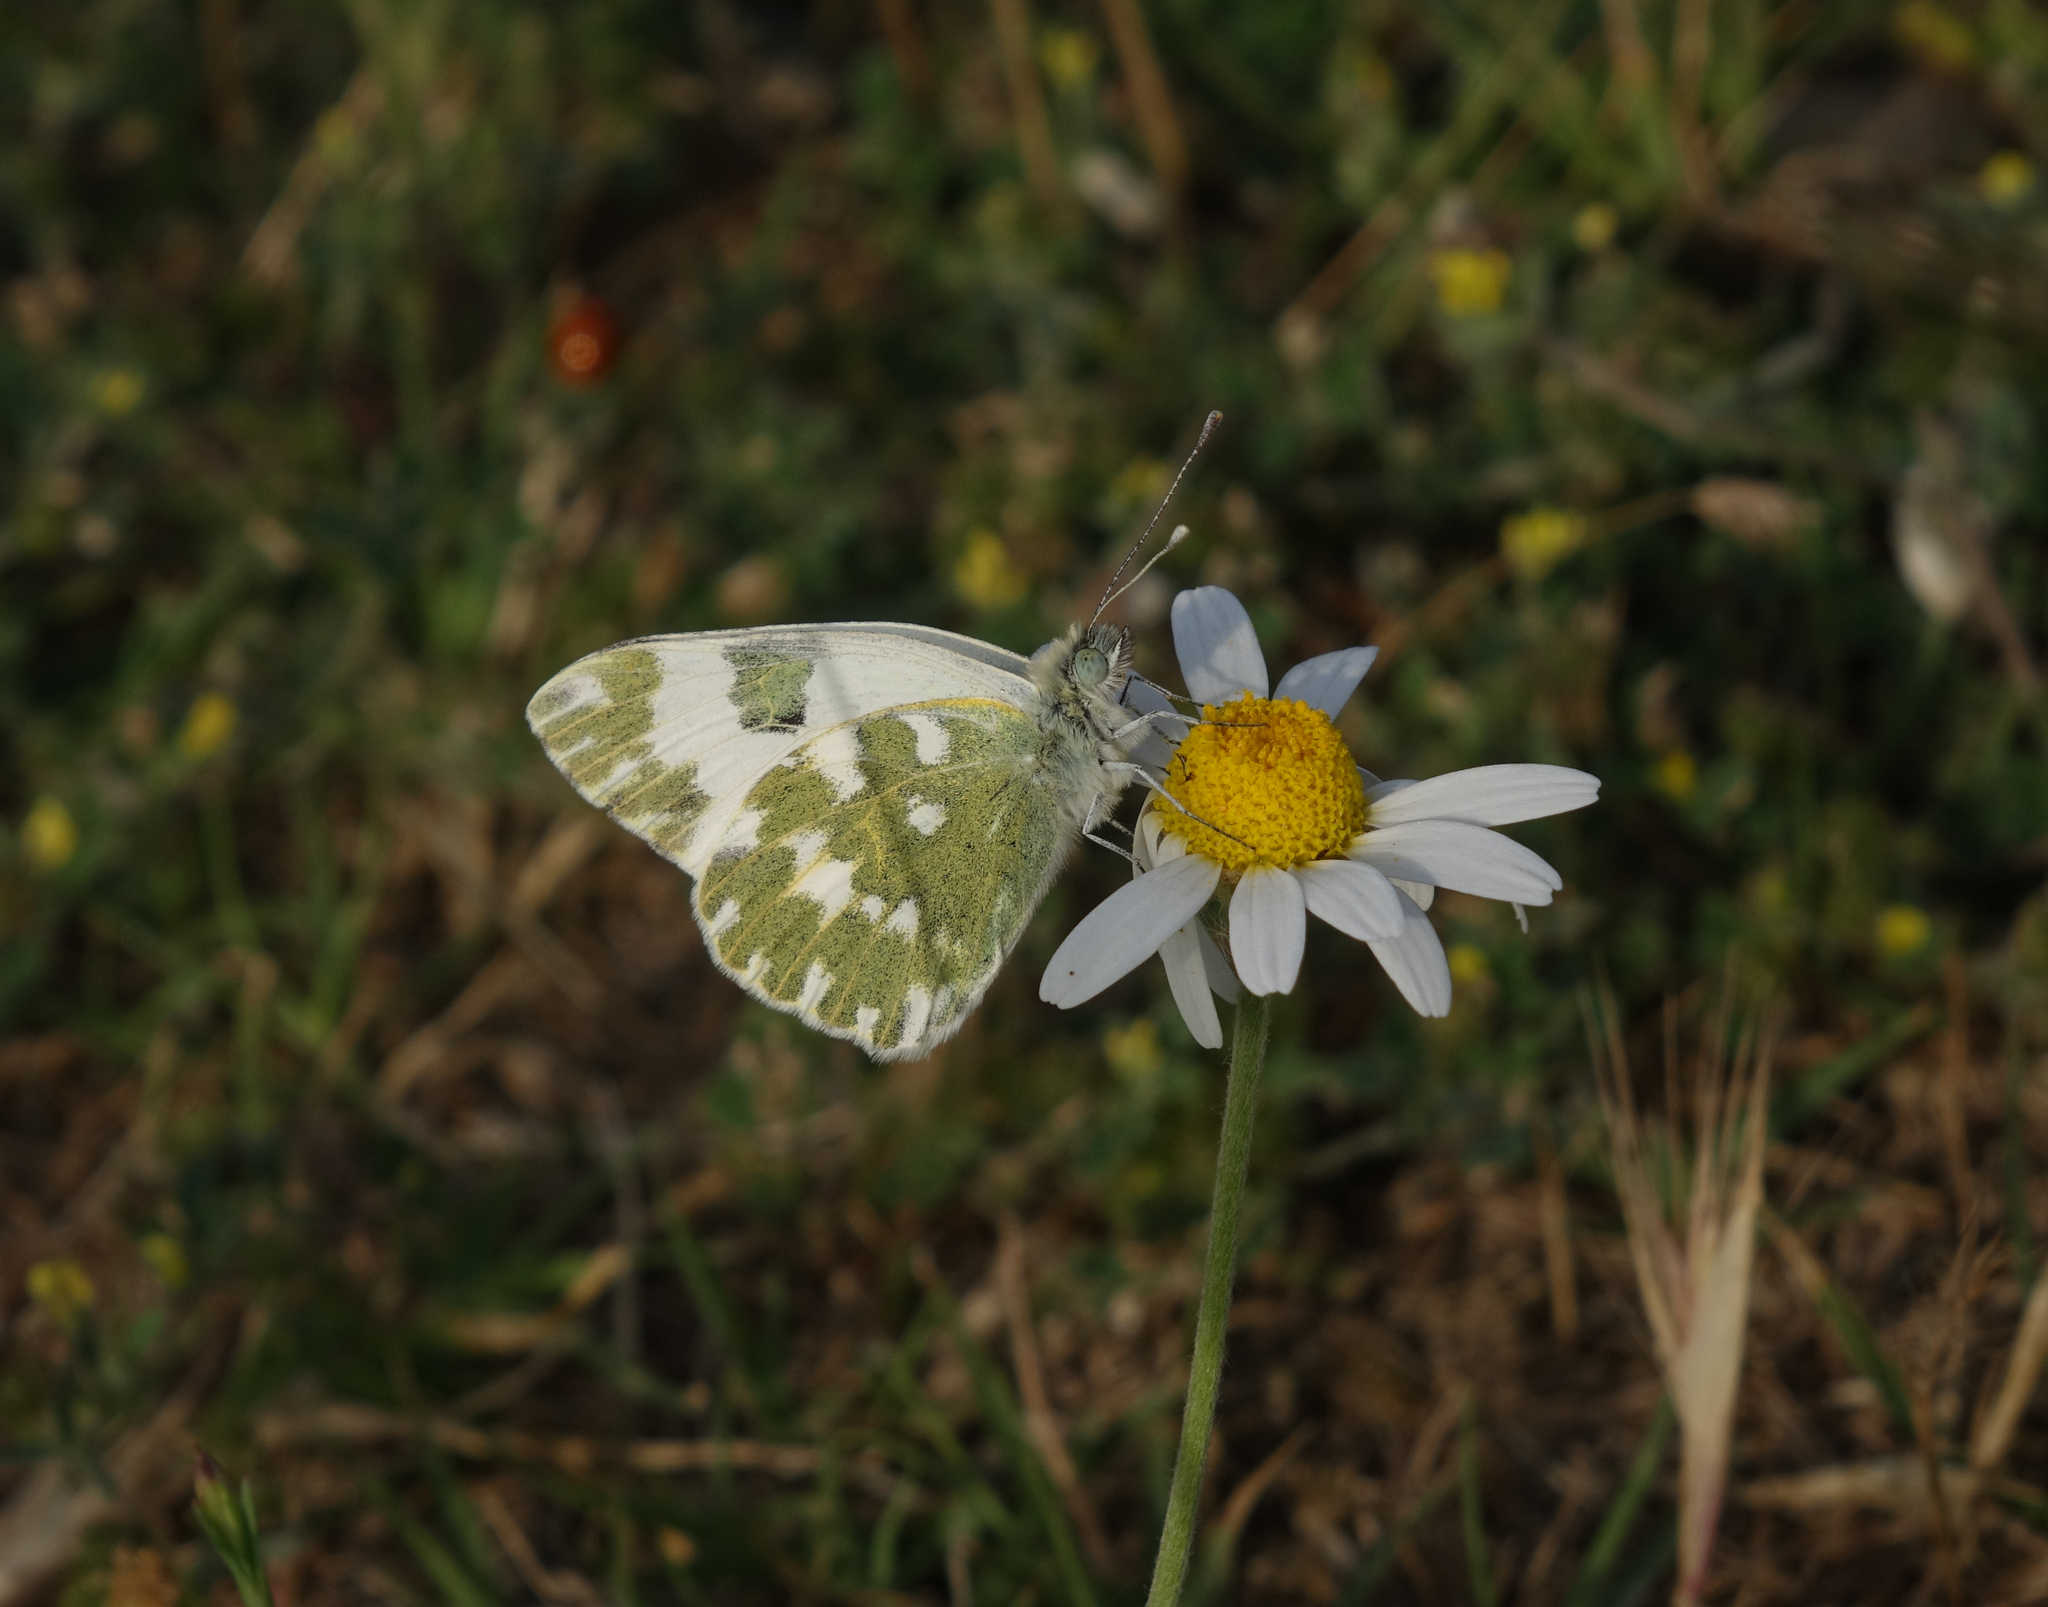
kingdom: Animalia
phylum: Arthropoda
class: Insecta
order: Lepidoptera
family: Pieridae
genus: Pontia
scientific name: Pontia edusa
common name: Eastern bath white
